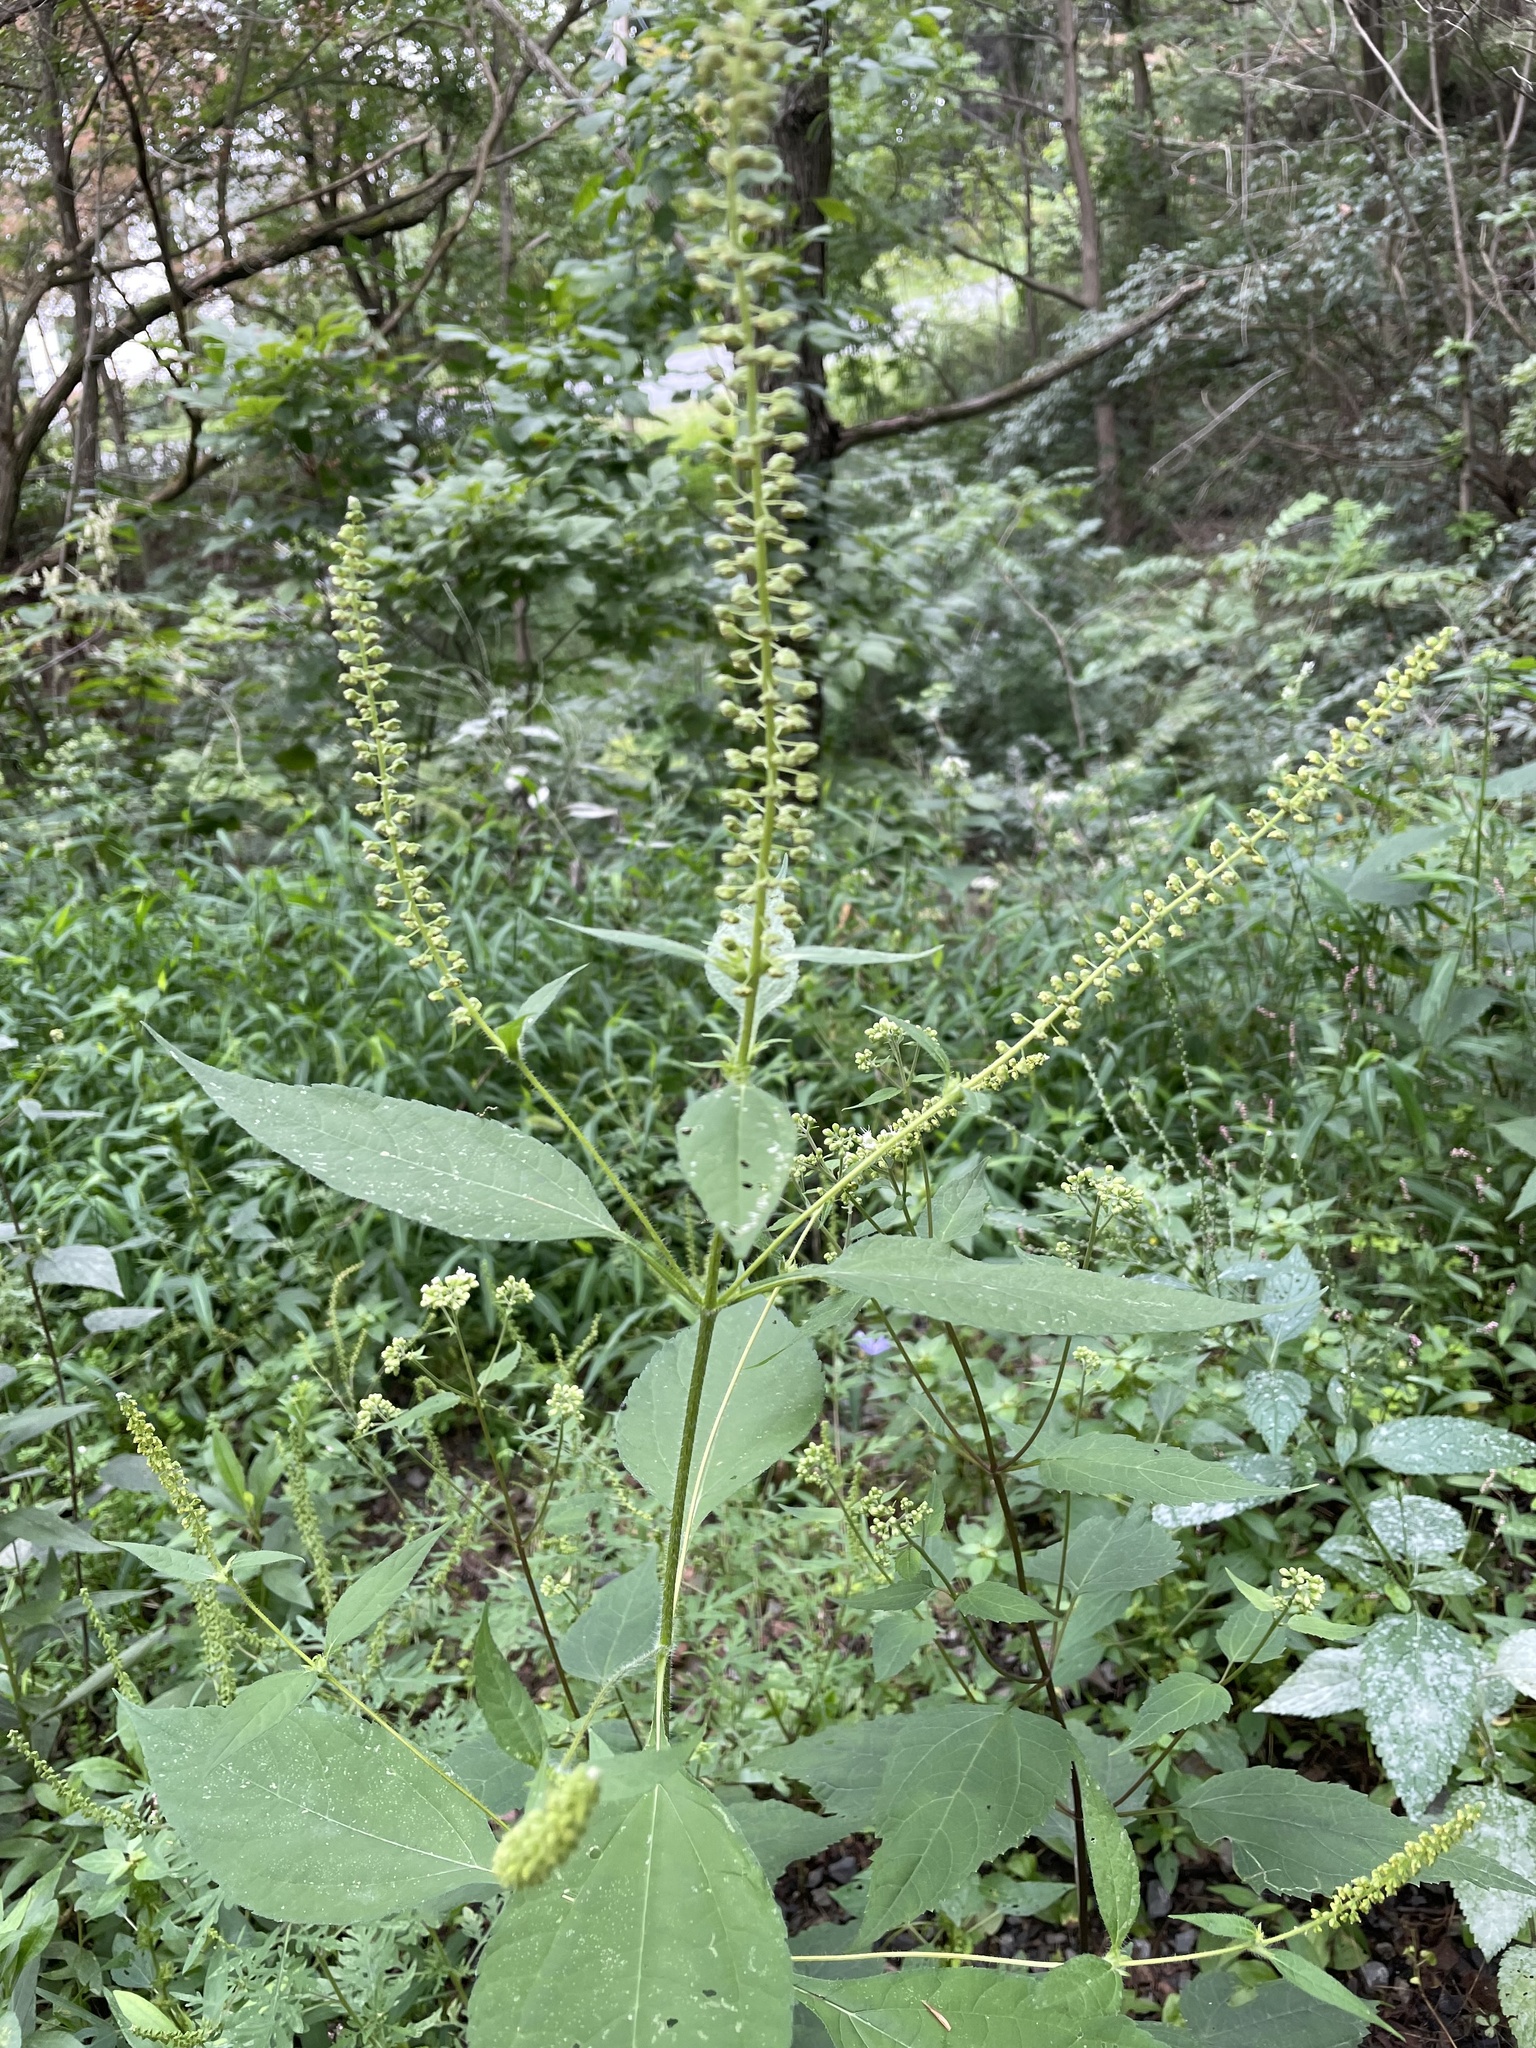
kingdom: Plantae
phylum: Tracheophyta
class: Magnoliopsida
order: Asterales
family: Asteraceae
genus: Ambrosia
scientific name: Ambrosia trifida
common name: Giant ragweed
